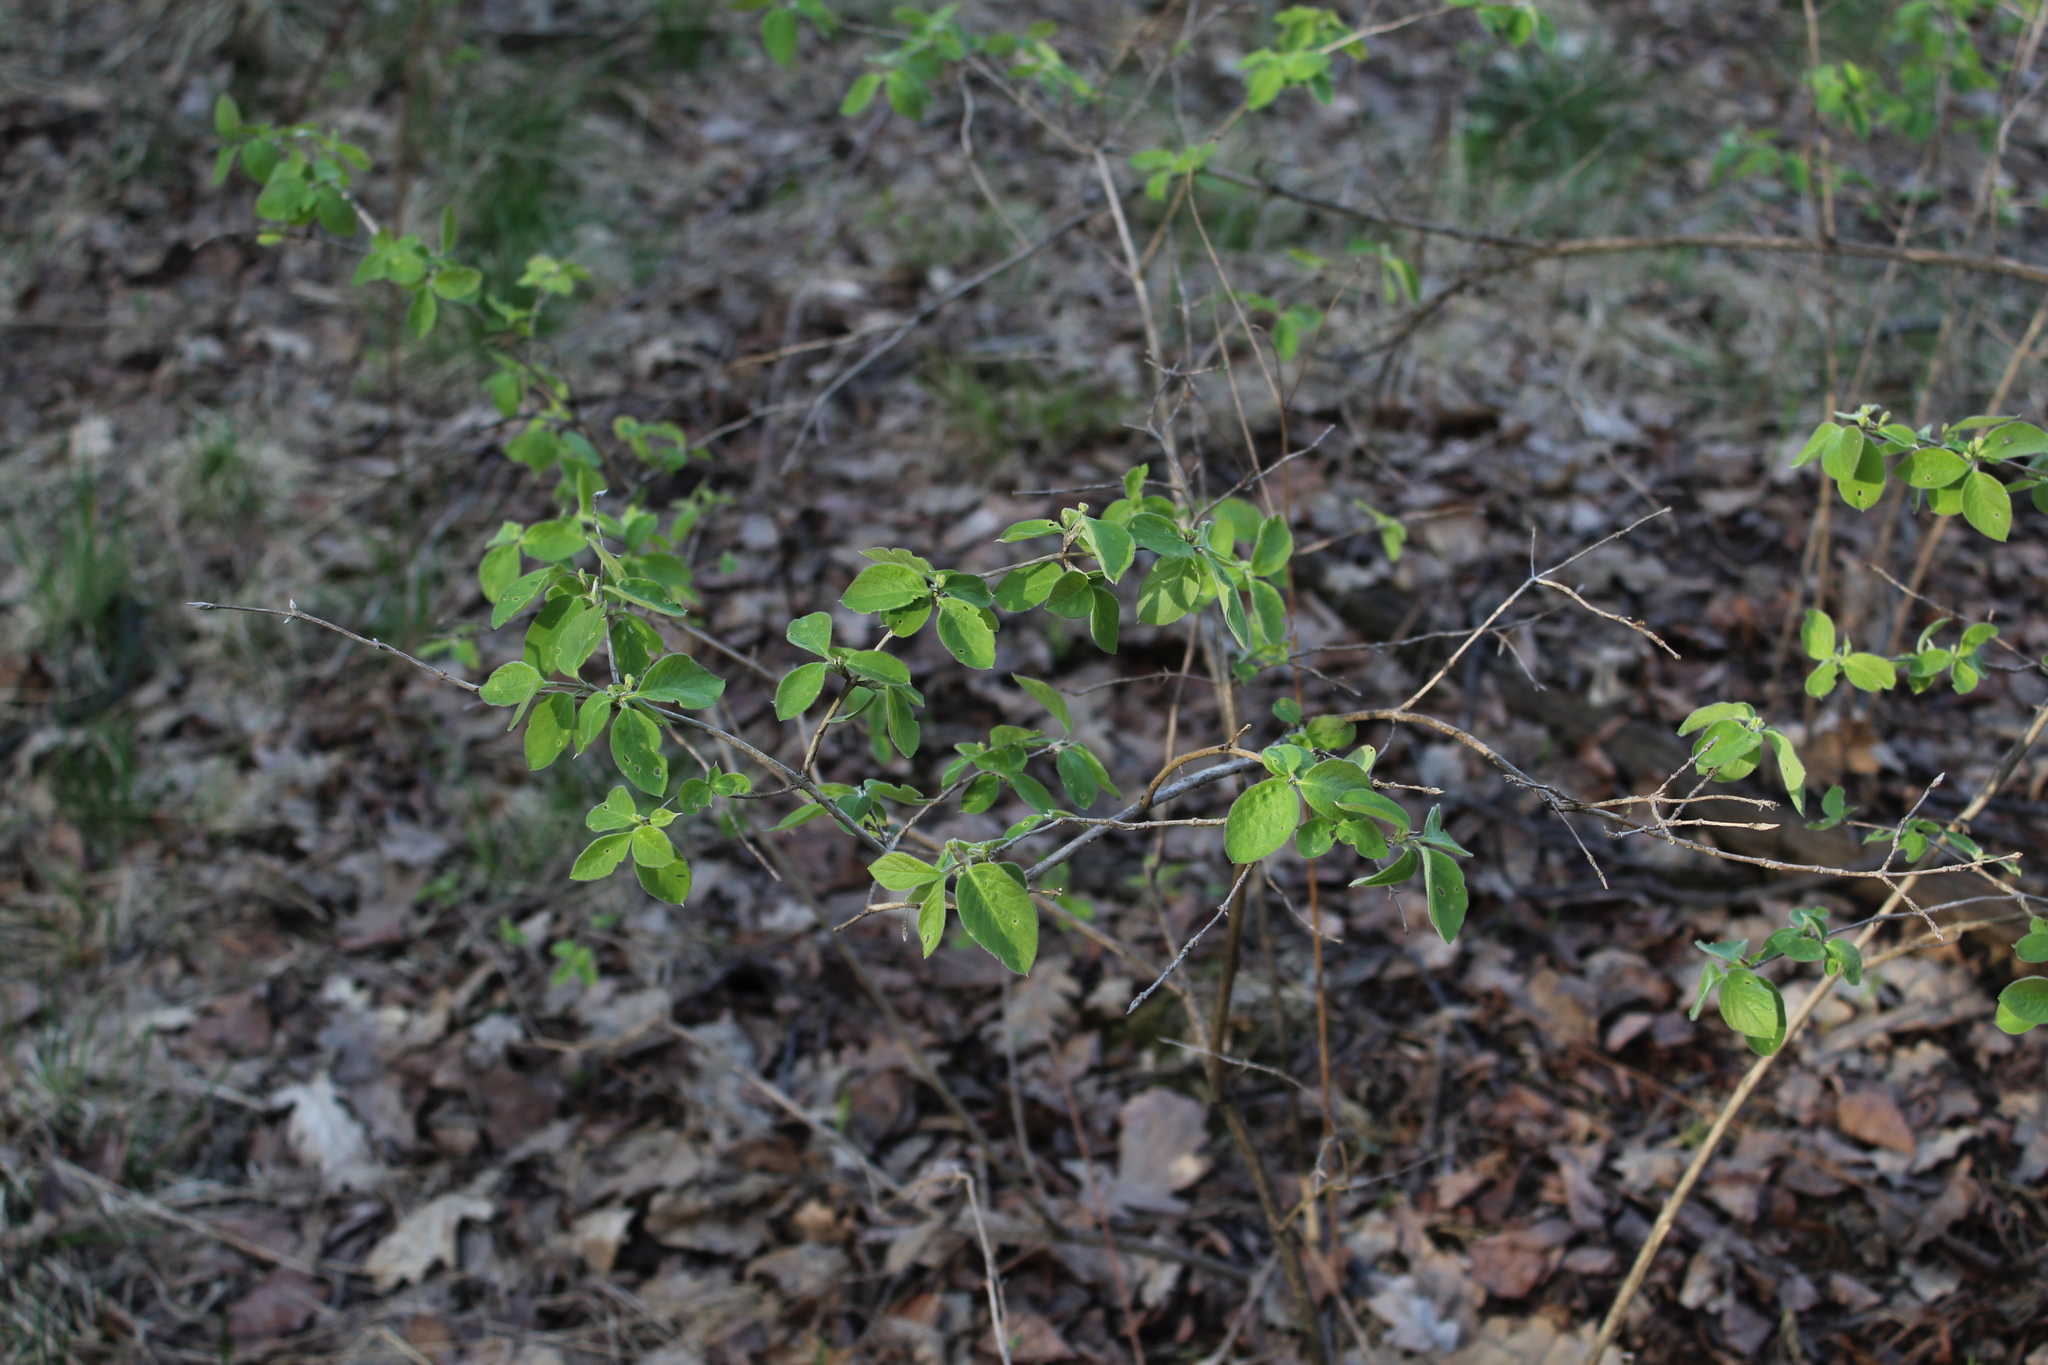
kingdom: Plantae
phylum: Tracheophyta
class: Magnoliopsida
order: Dipsacales
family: Caprifoliaceae
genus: Lonicera
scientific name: Lonicera xylosteum
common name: Fly honeysuckle
